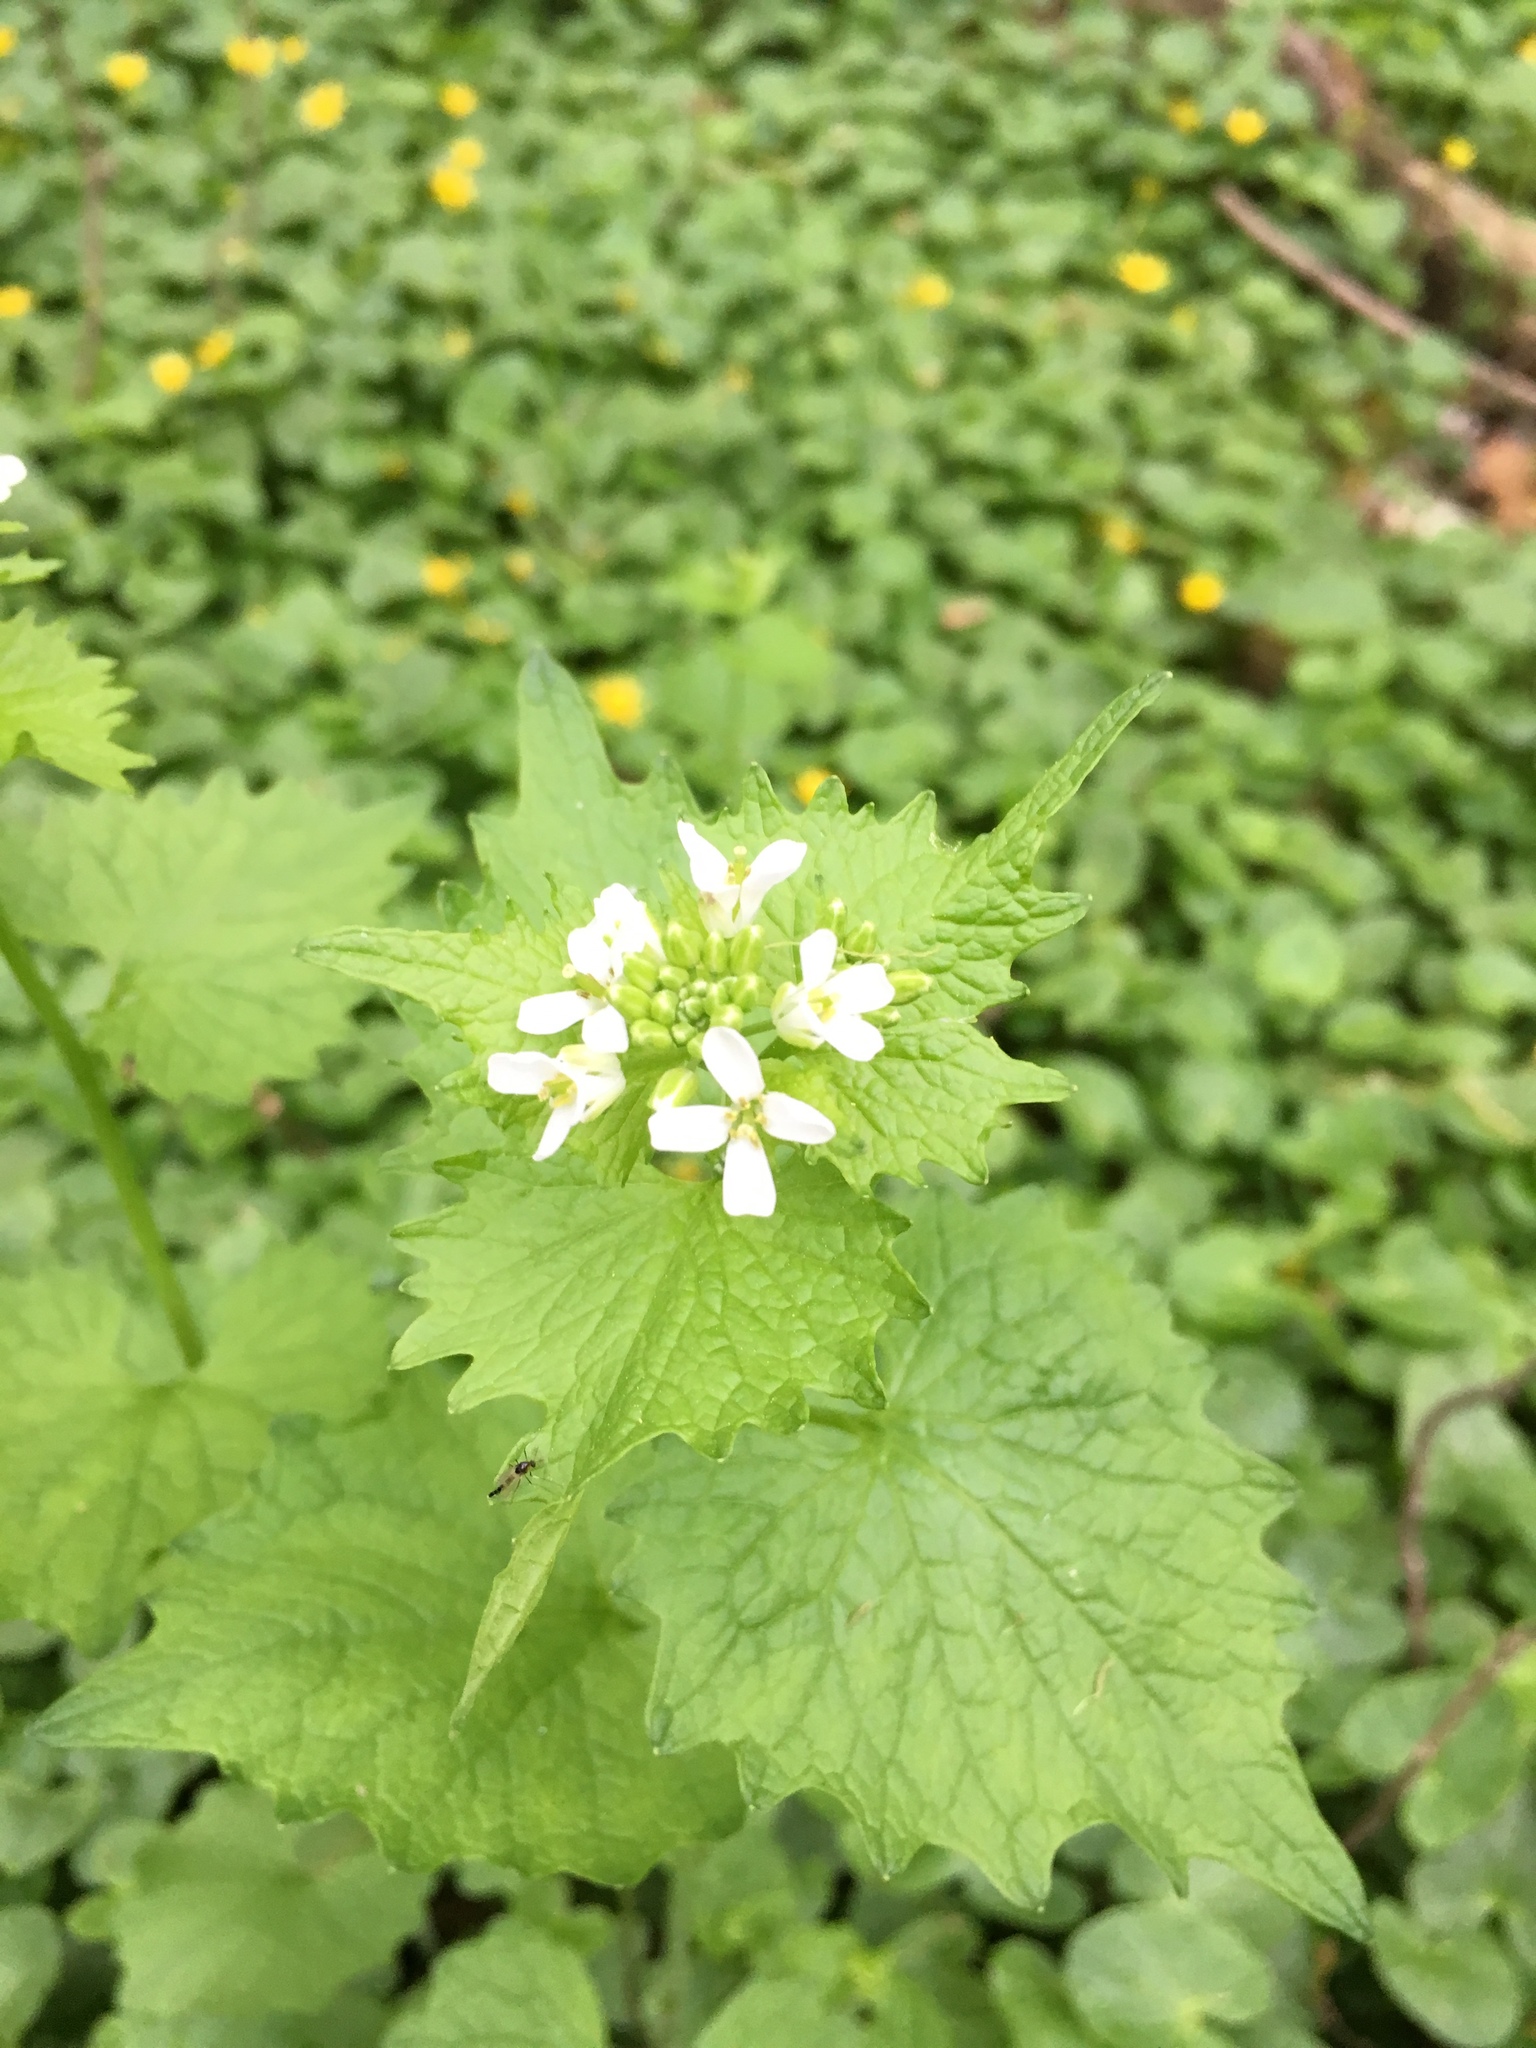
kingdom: Plantae
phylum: Tracheophyta
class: Magnoliopsida
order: Brassicales
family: Brassicaceae
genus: Alliaria
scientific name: Alliaria petiolata
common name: Garlic mustard
